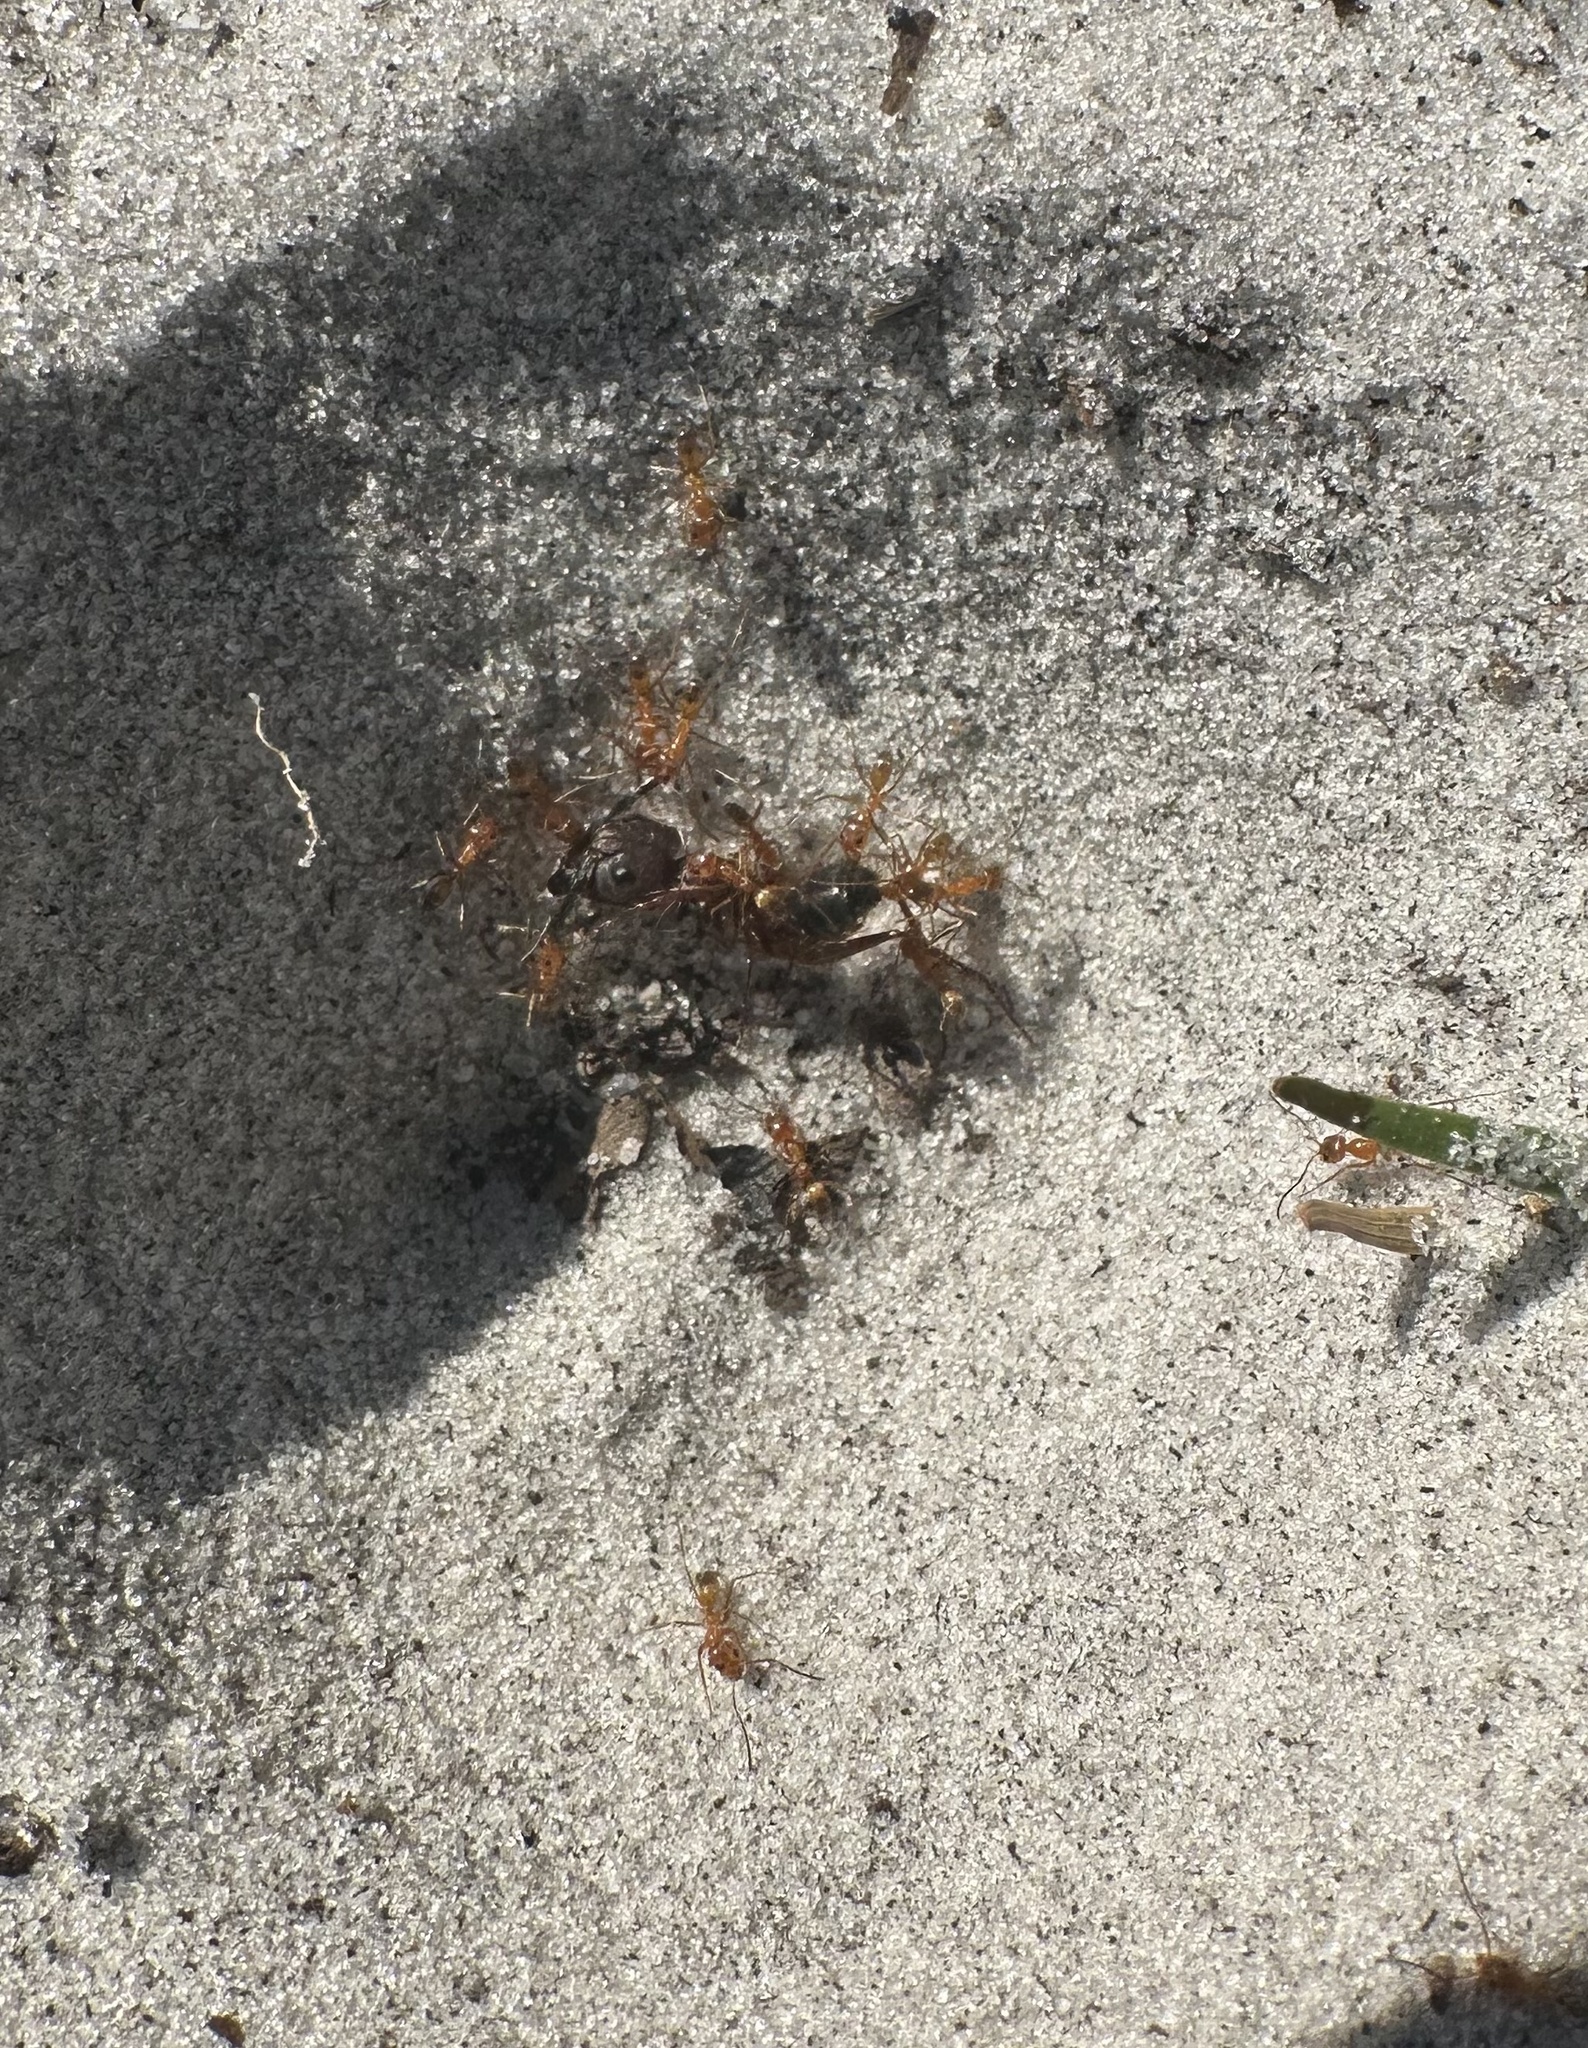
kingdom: Animalia
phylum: Arthropoda
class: Insecta
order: Hymenoptera
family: Formicidae
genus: Dorymyrmex
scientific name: Dorymyrmex bureni
